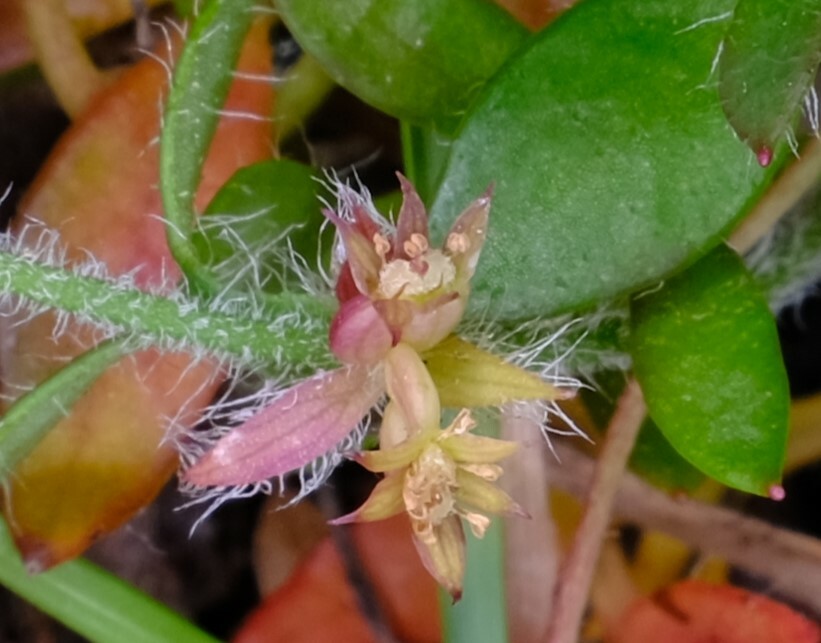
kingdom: Plantae
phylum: Tracheophyta
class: Magnoliopsida
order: Apiales
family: Apiaceae
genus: Xanthosia
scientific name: Xanthosia tasmanica
